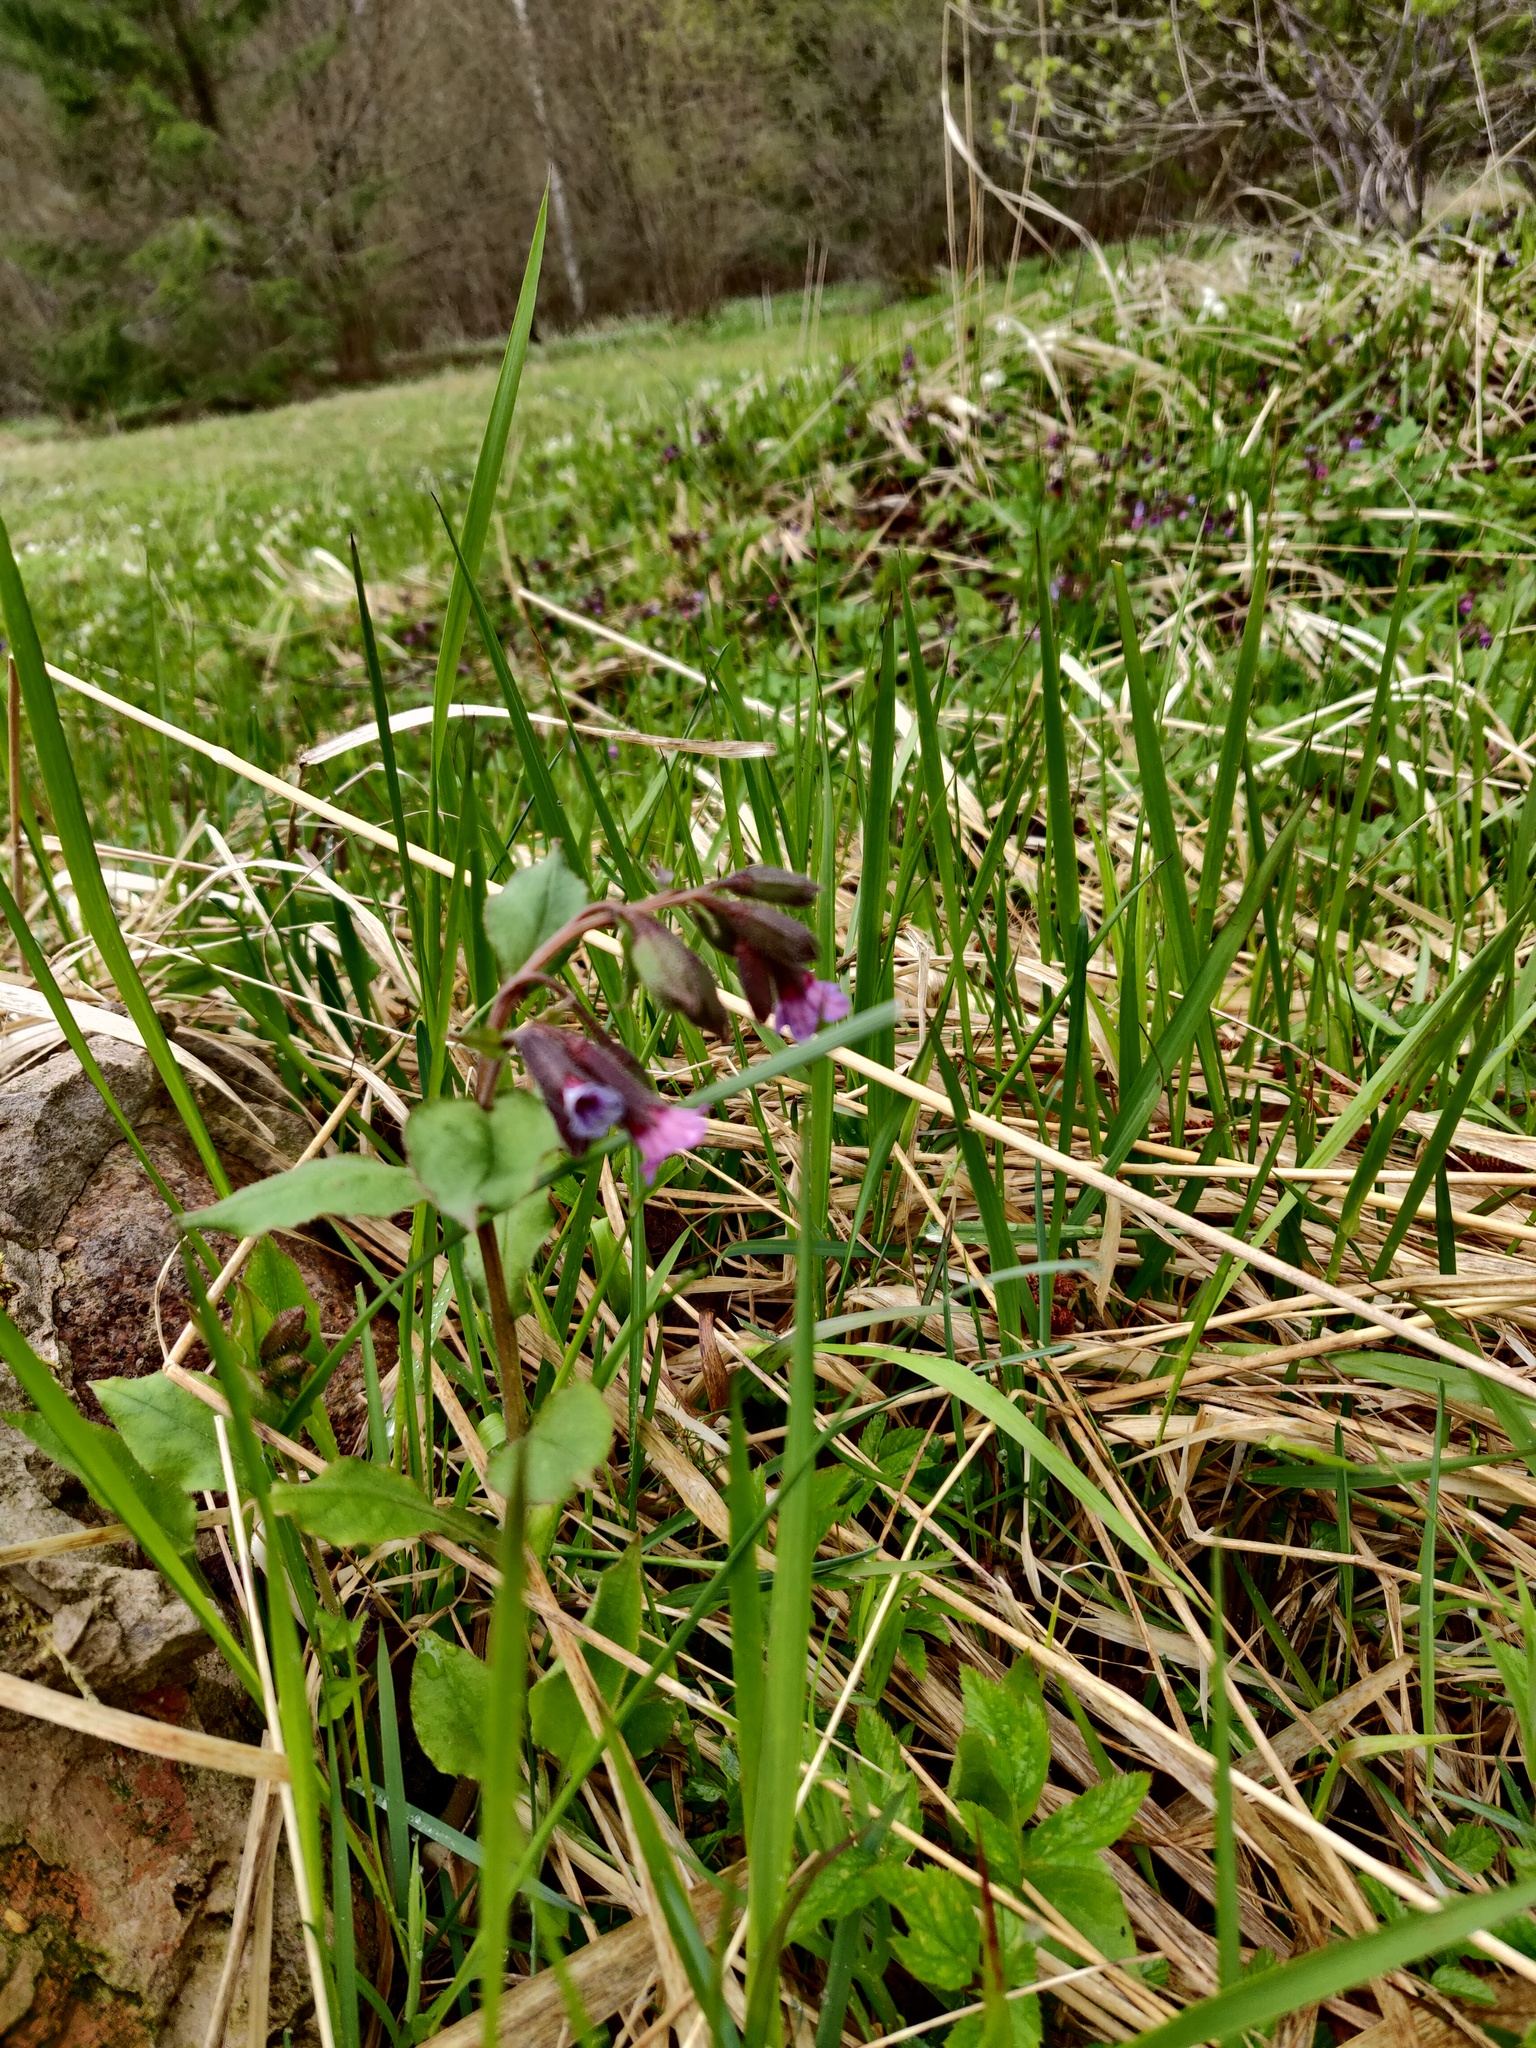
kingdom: Plantae
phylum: Tracheophyta
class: Magnoliopsida
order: Boraginales
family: Boraginaceae
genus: Pulmonaria
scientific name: Pulmonaria obscura
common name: Suffolk lungwort
